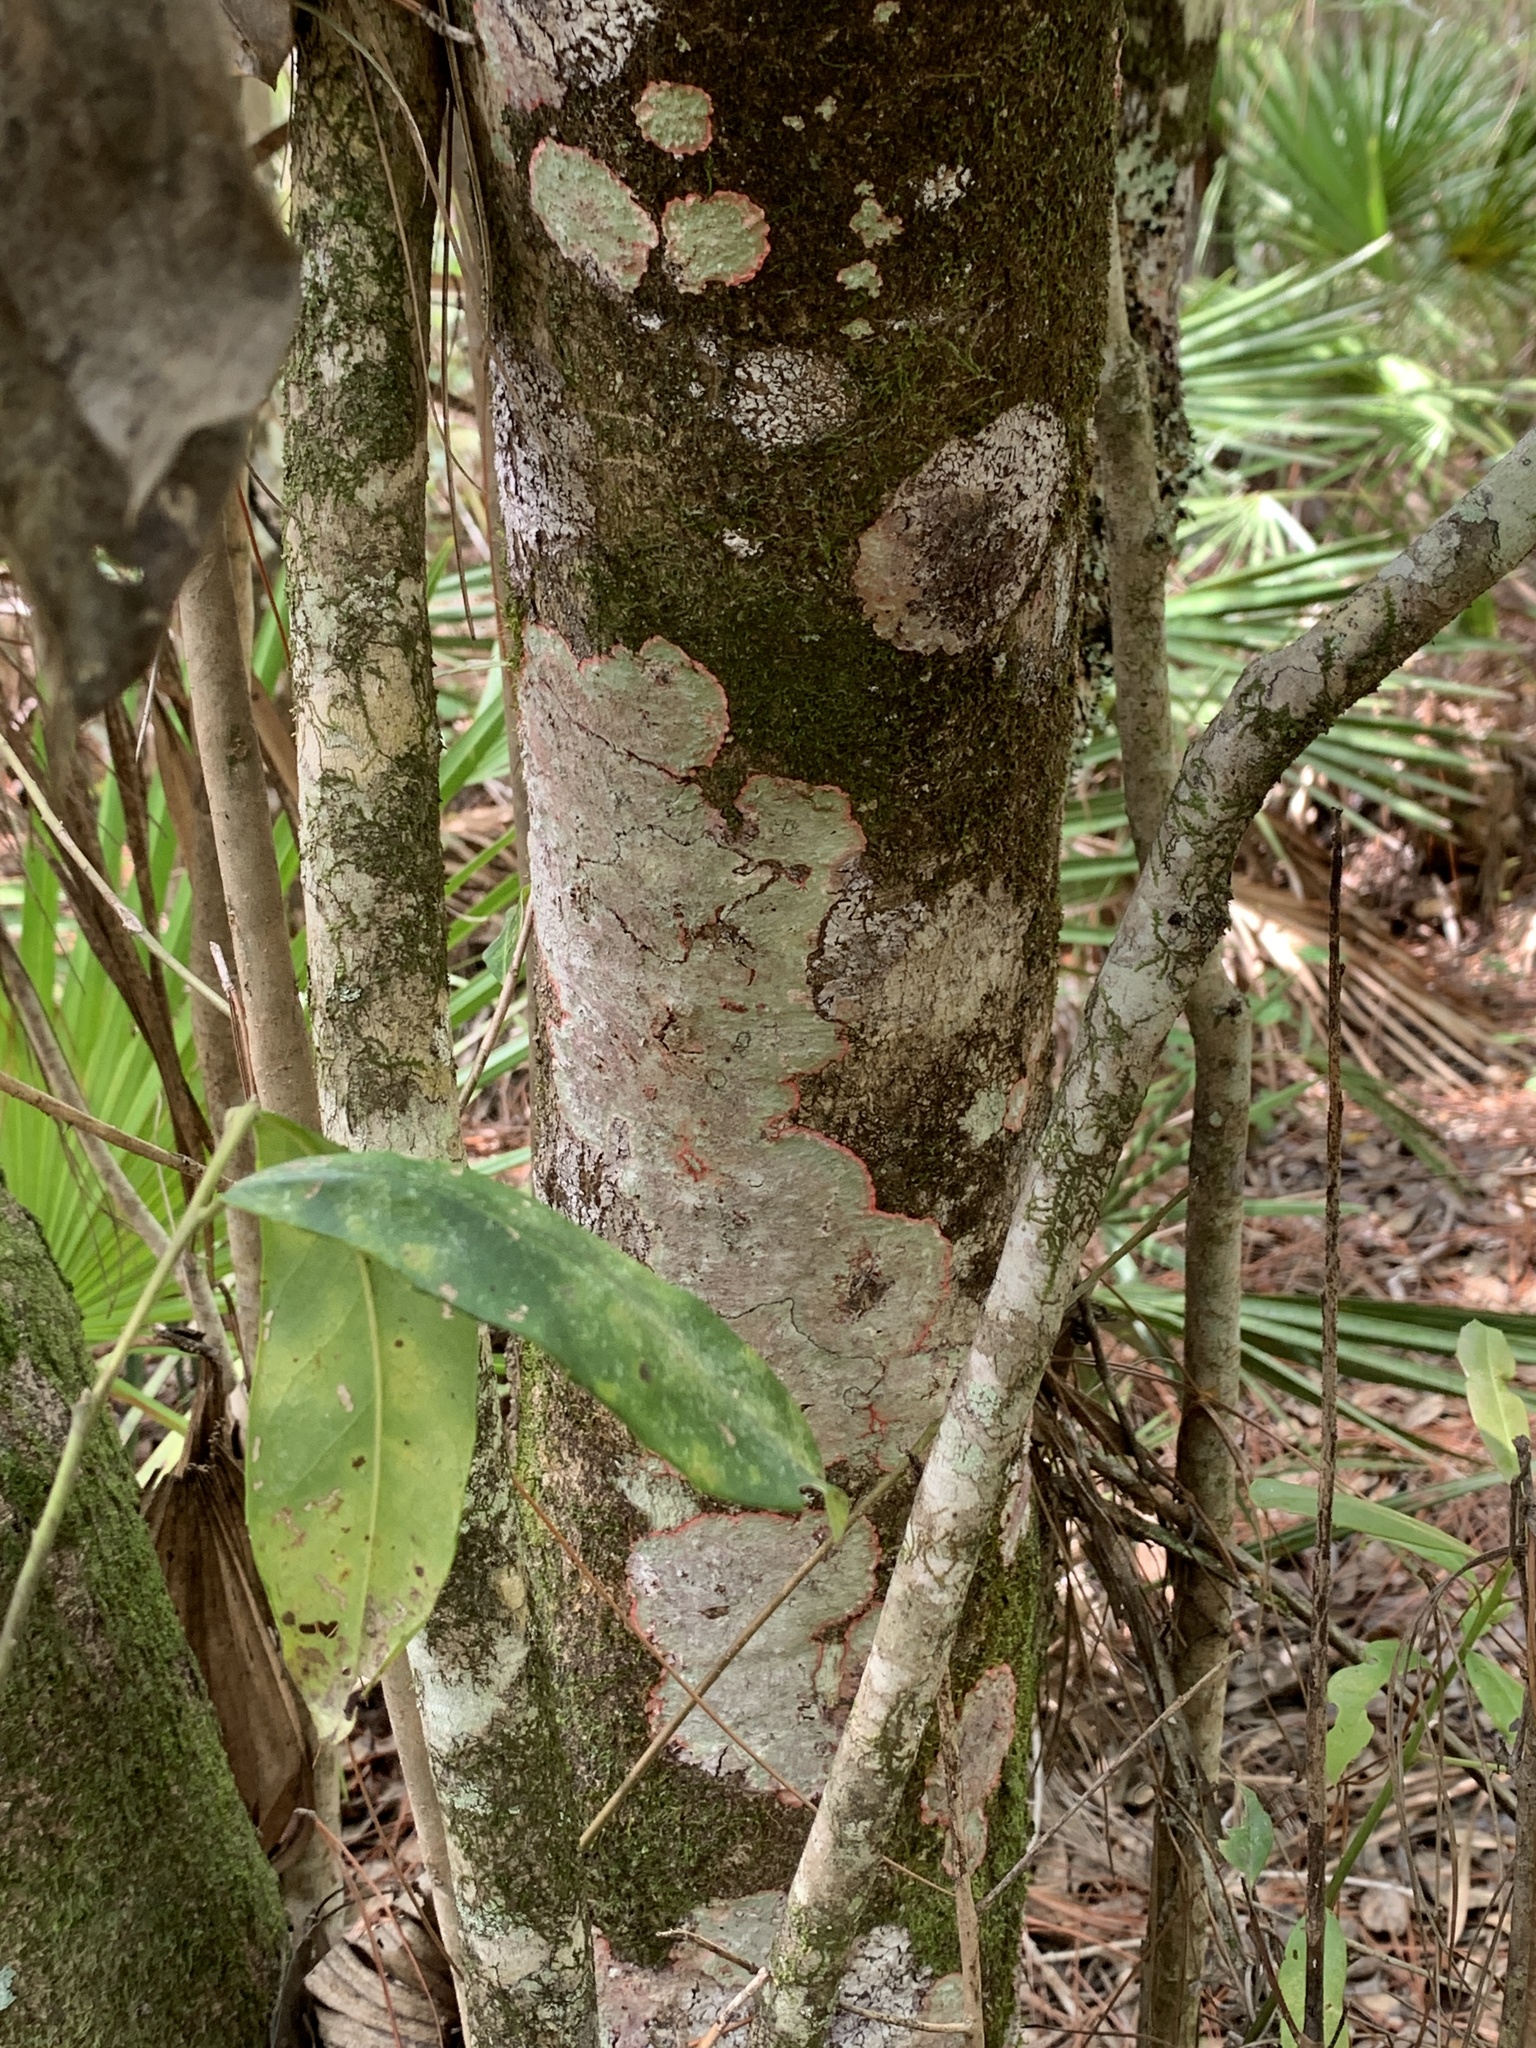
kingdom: Fungi
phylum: Ascomycota
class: Arthoniomycetes
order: Arthoniales
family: Arthoniaceae
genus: Herpothallon
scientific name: Herpothallon rubrocinctum
